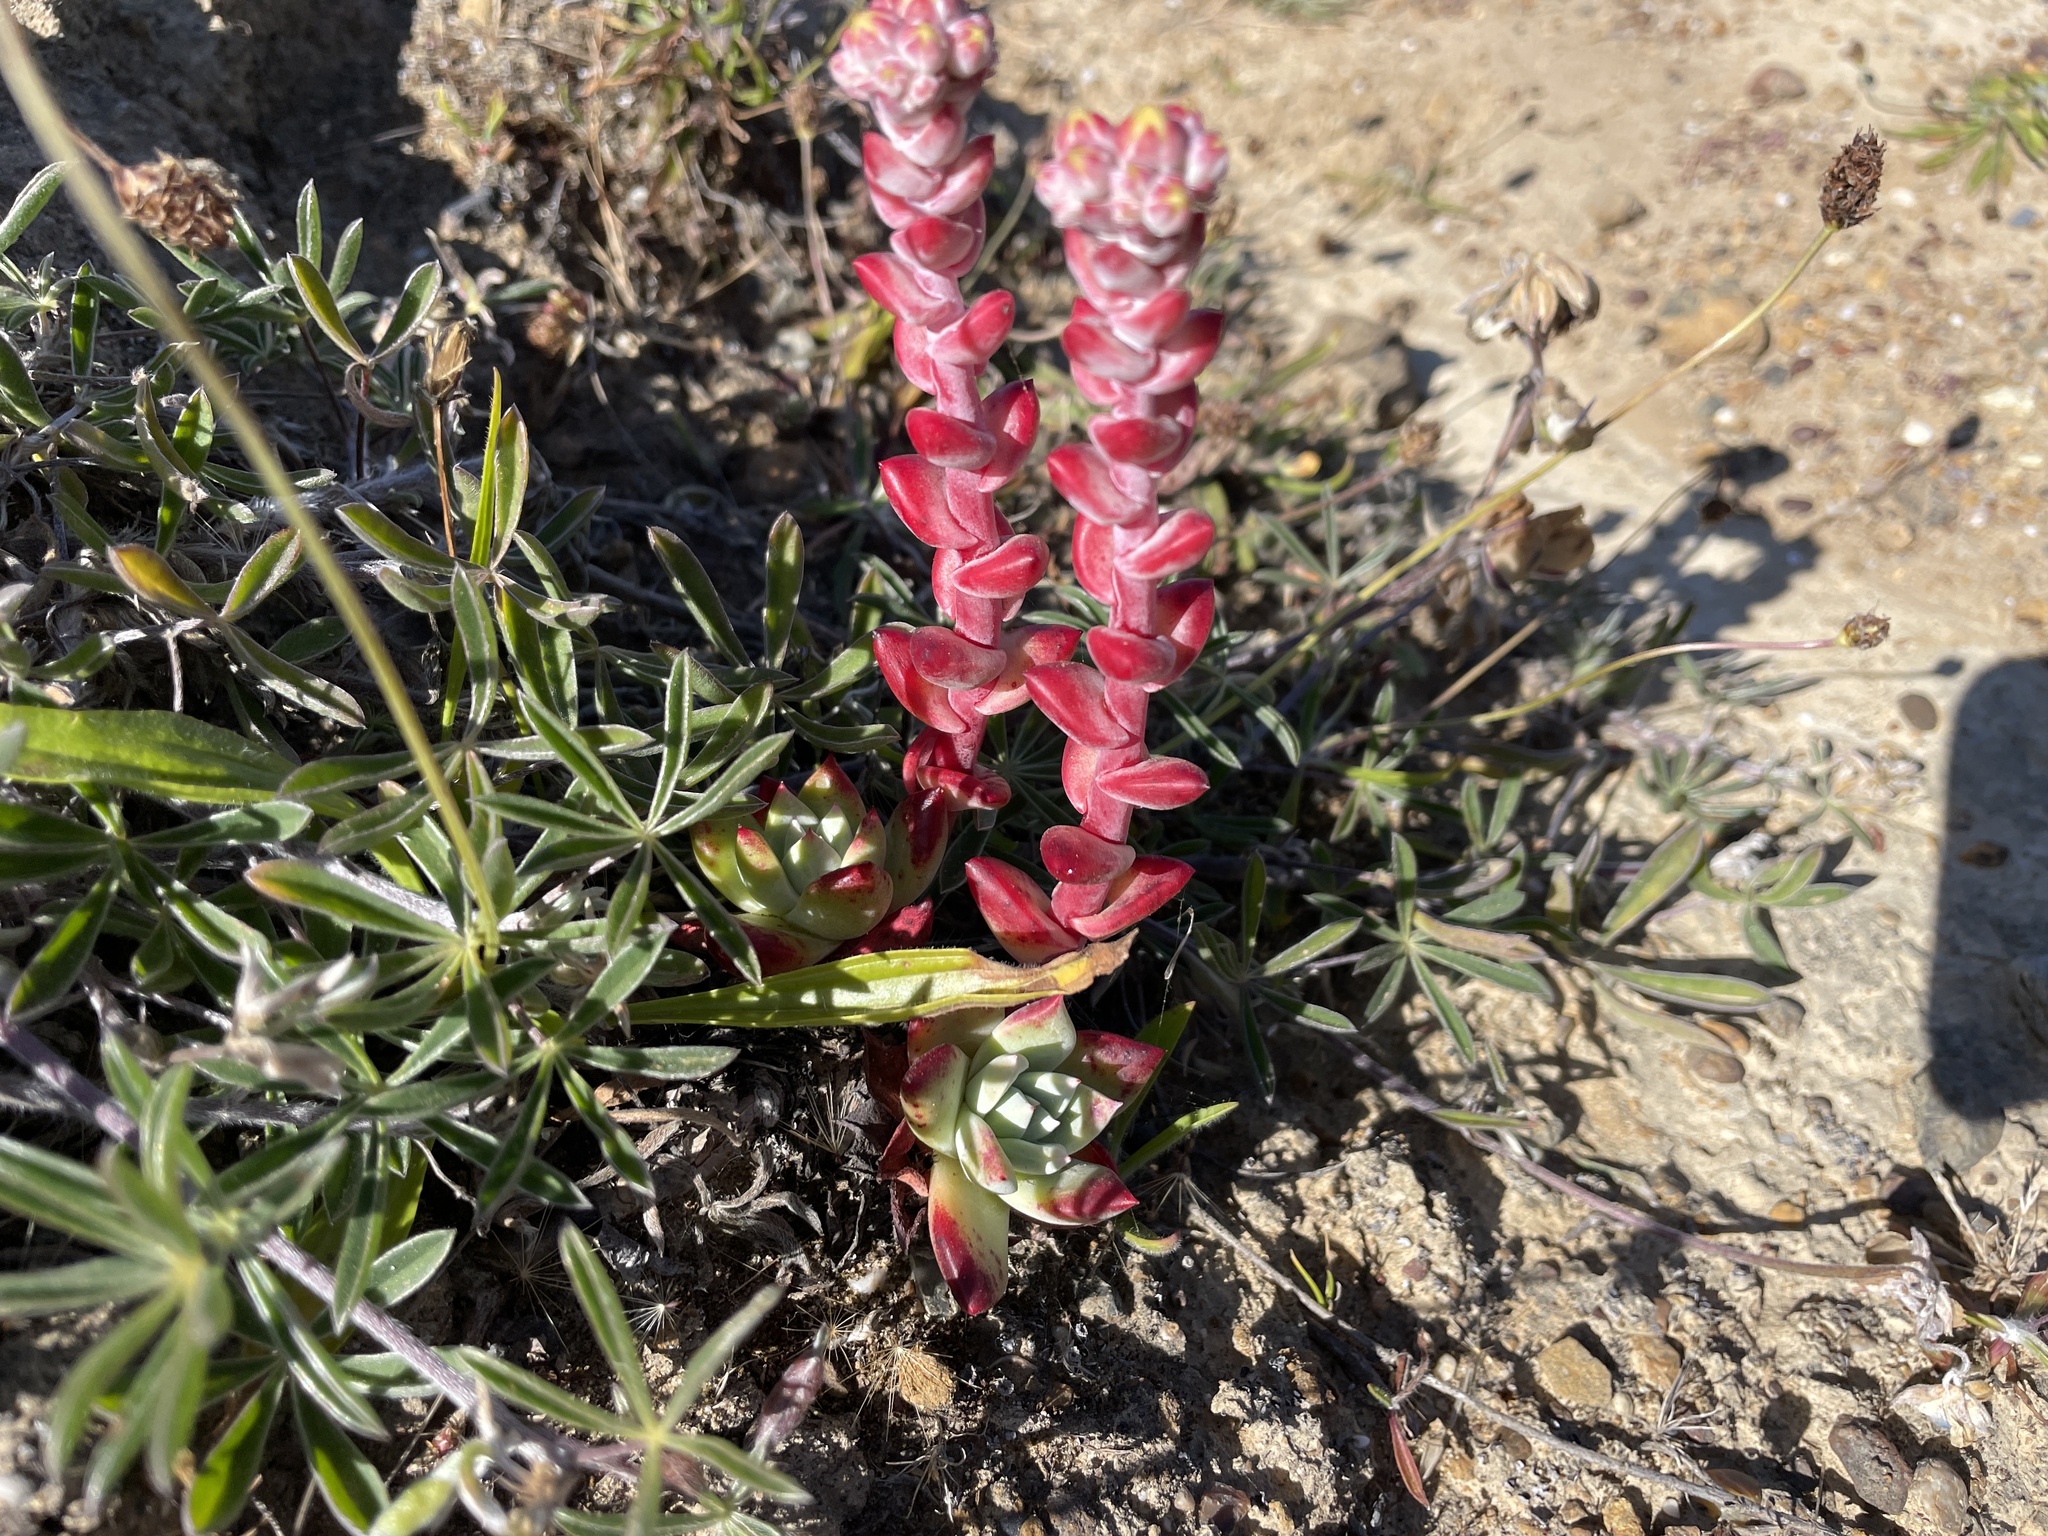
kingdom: Plantae
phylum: Tracheophyta
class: Magnoliopsida
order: Saxifragales
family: Crassulaceae
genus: Dudleya
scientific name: Dudleya farinosa
